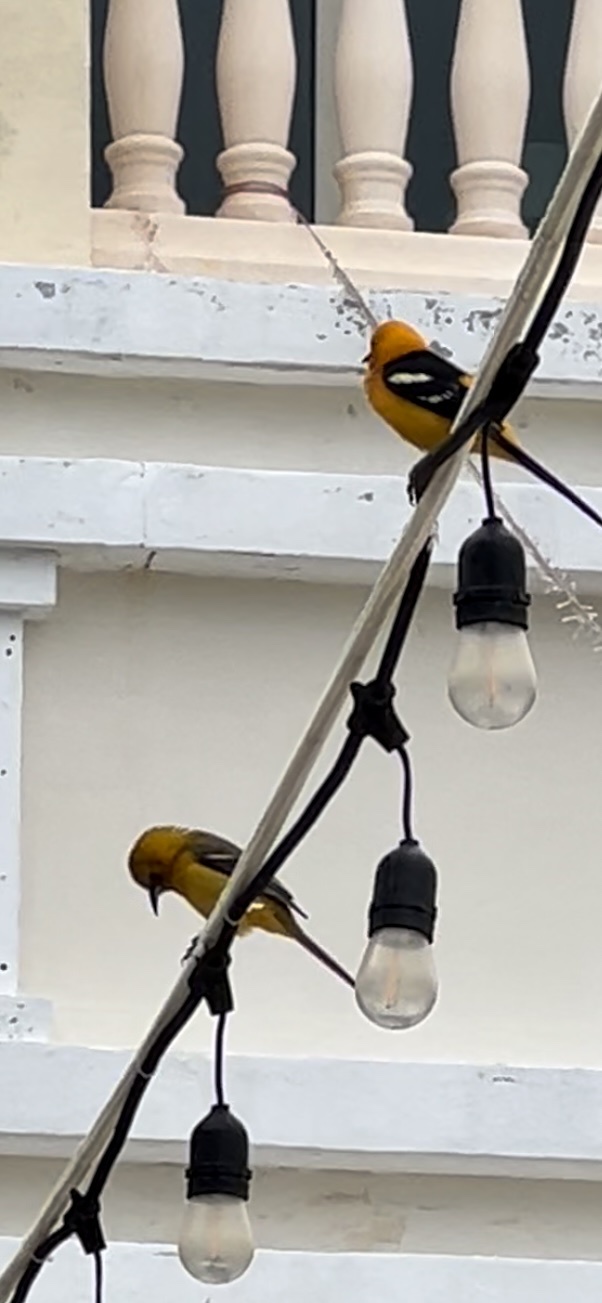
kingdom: Animalia
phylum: Chordata
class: Aves
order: Passeriformes
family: Icteridae
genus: Icterus
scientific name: Icterus cucullatus
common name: Hooded oriole
